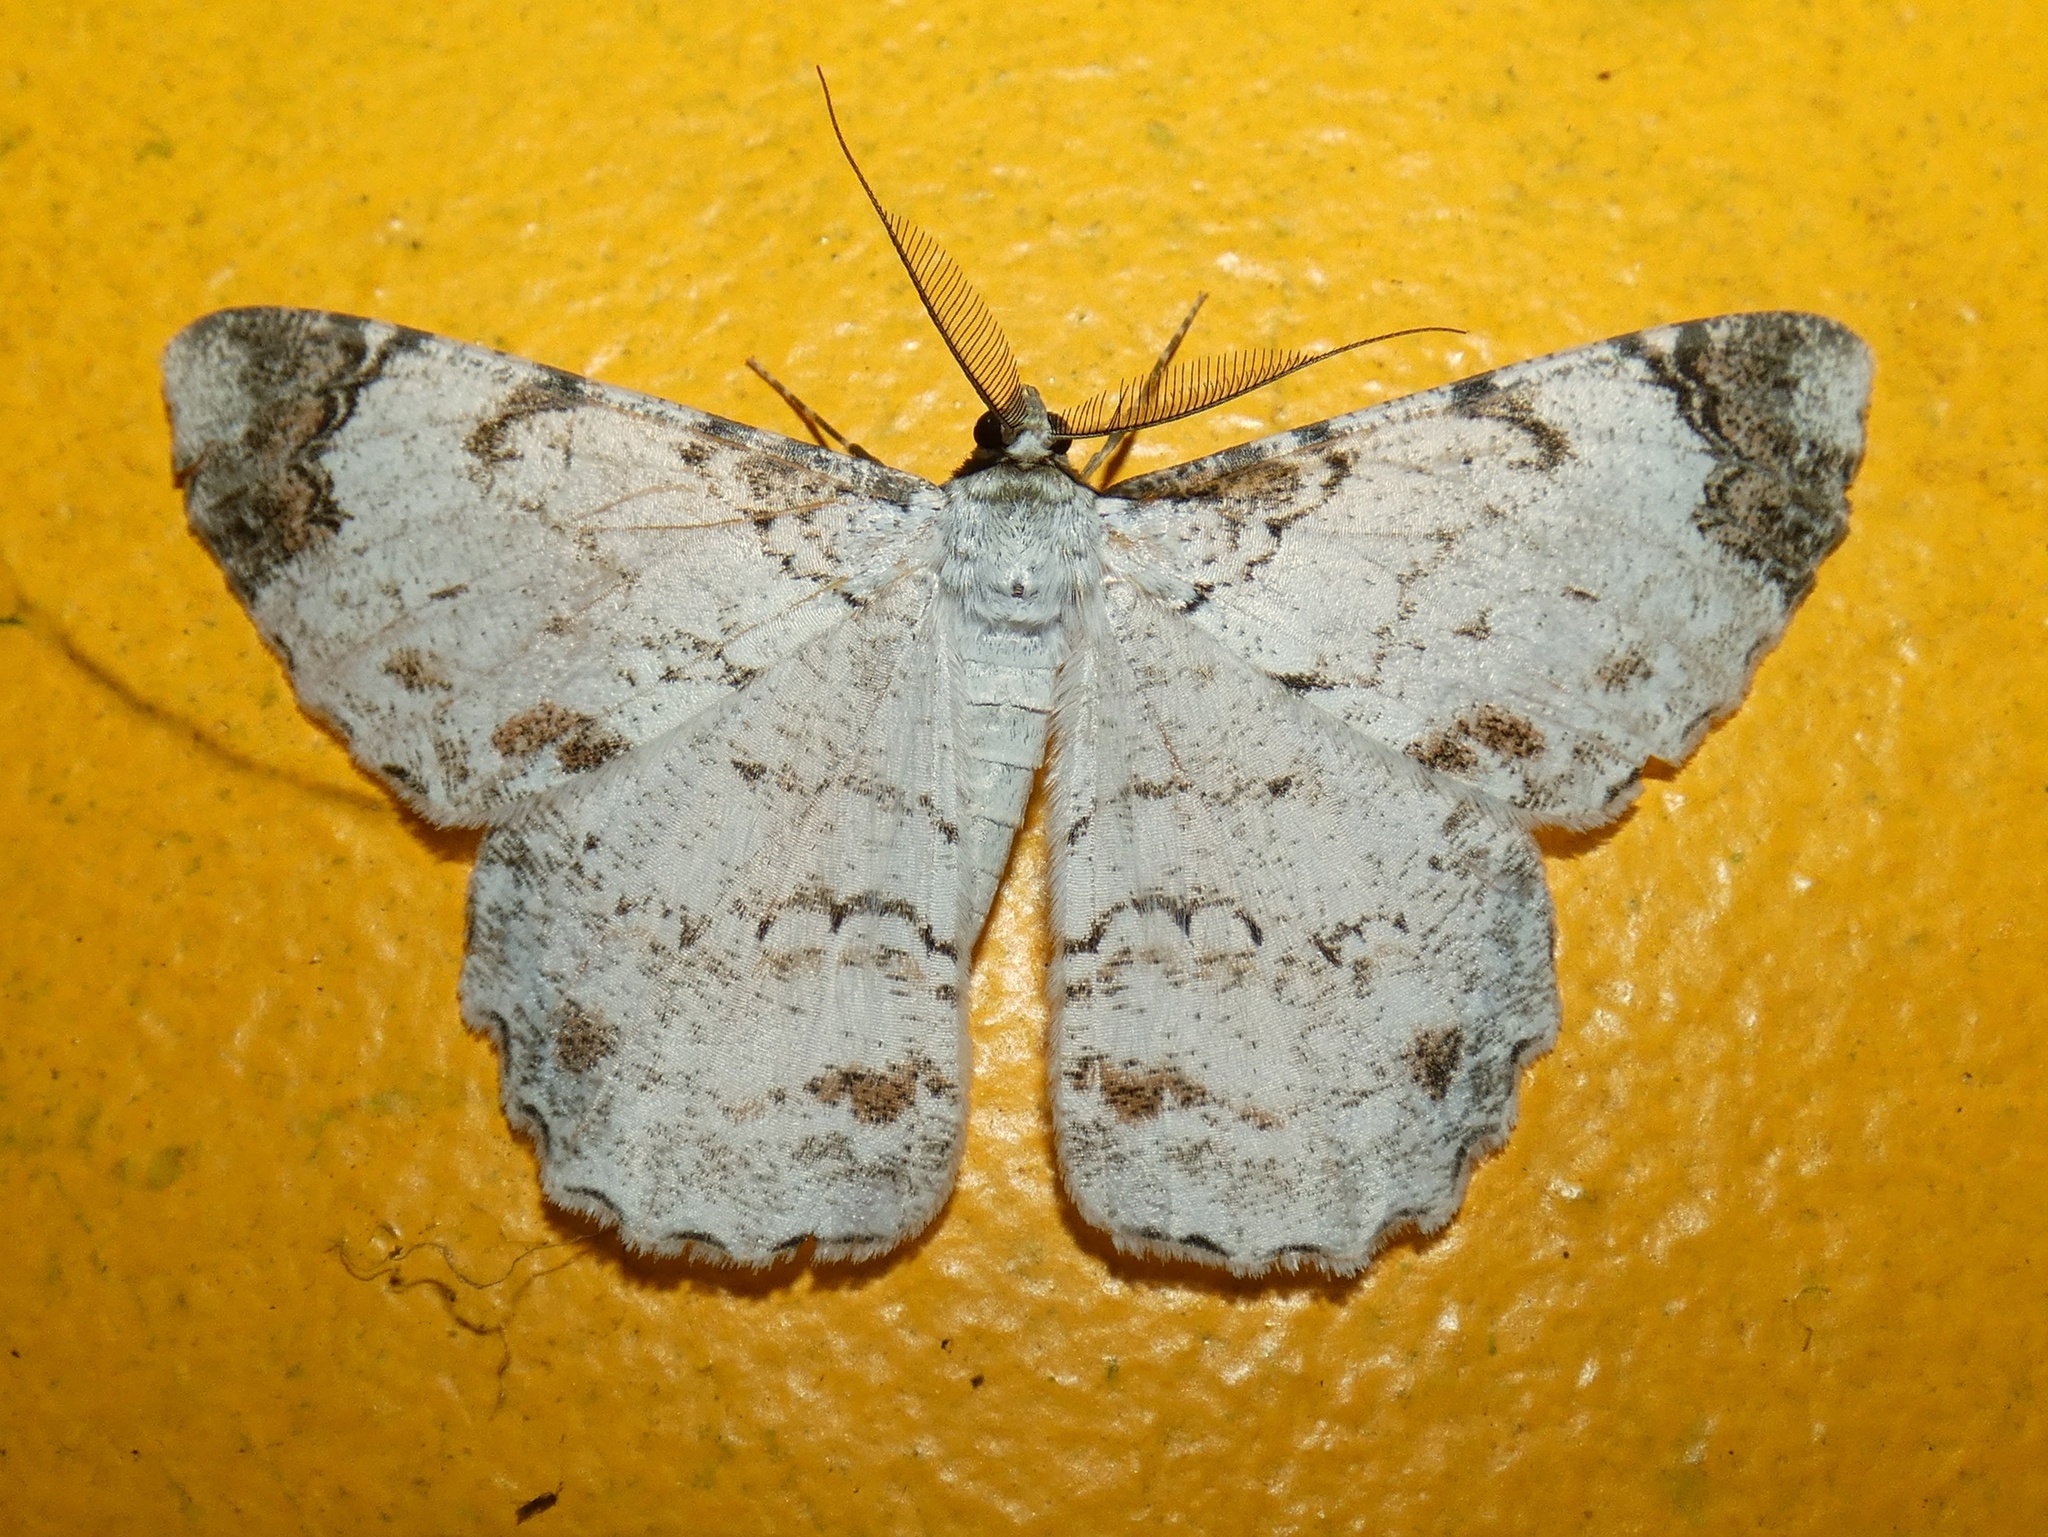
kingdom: Animalia
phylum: Arthropoda
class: Insecta
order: Lepidoptera
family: Geometridae
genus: Epimecis
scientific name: Epimecis anonaria
